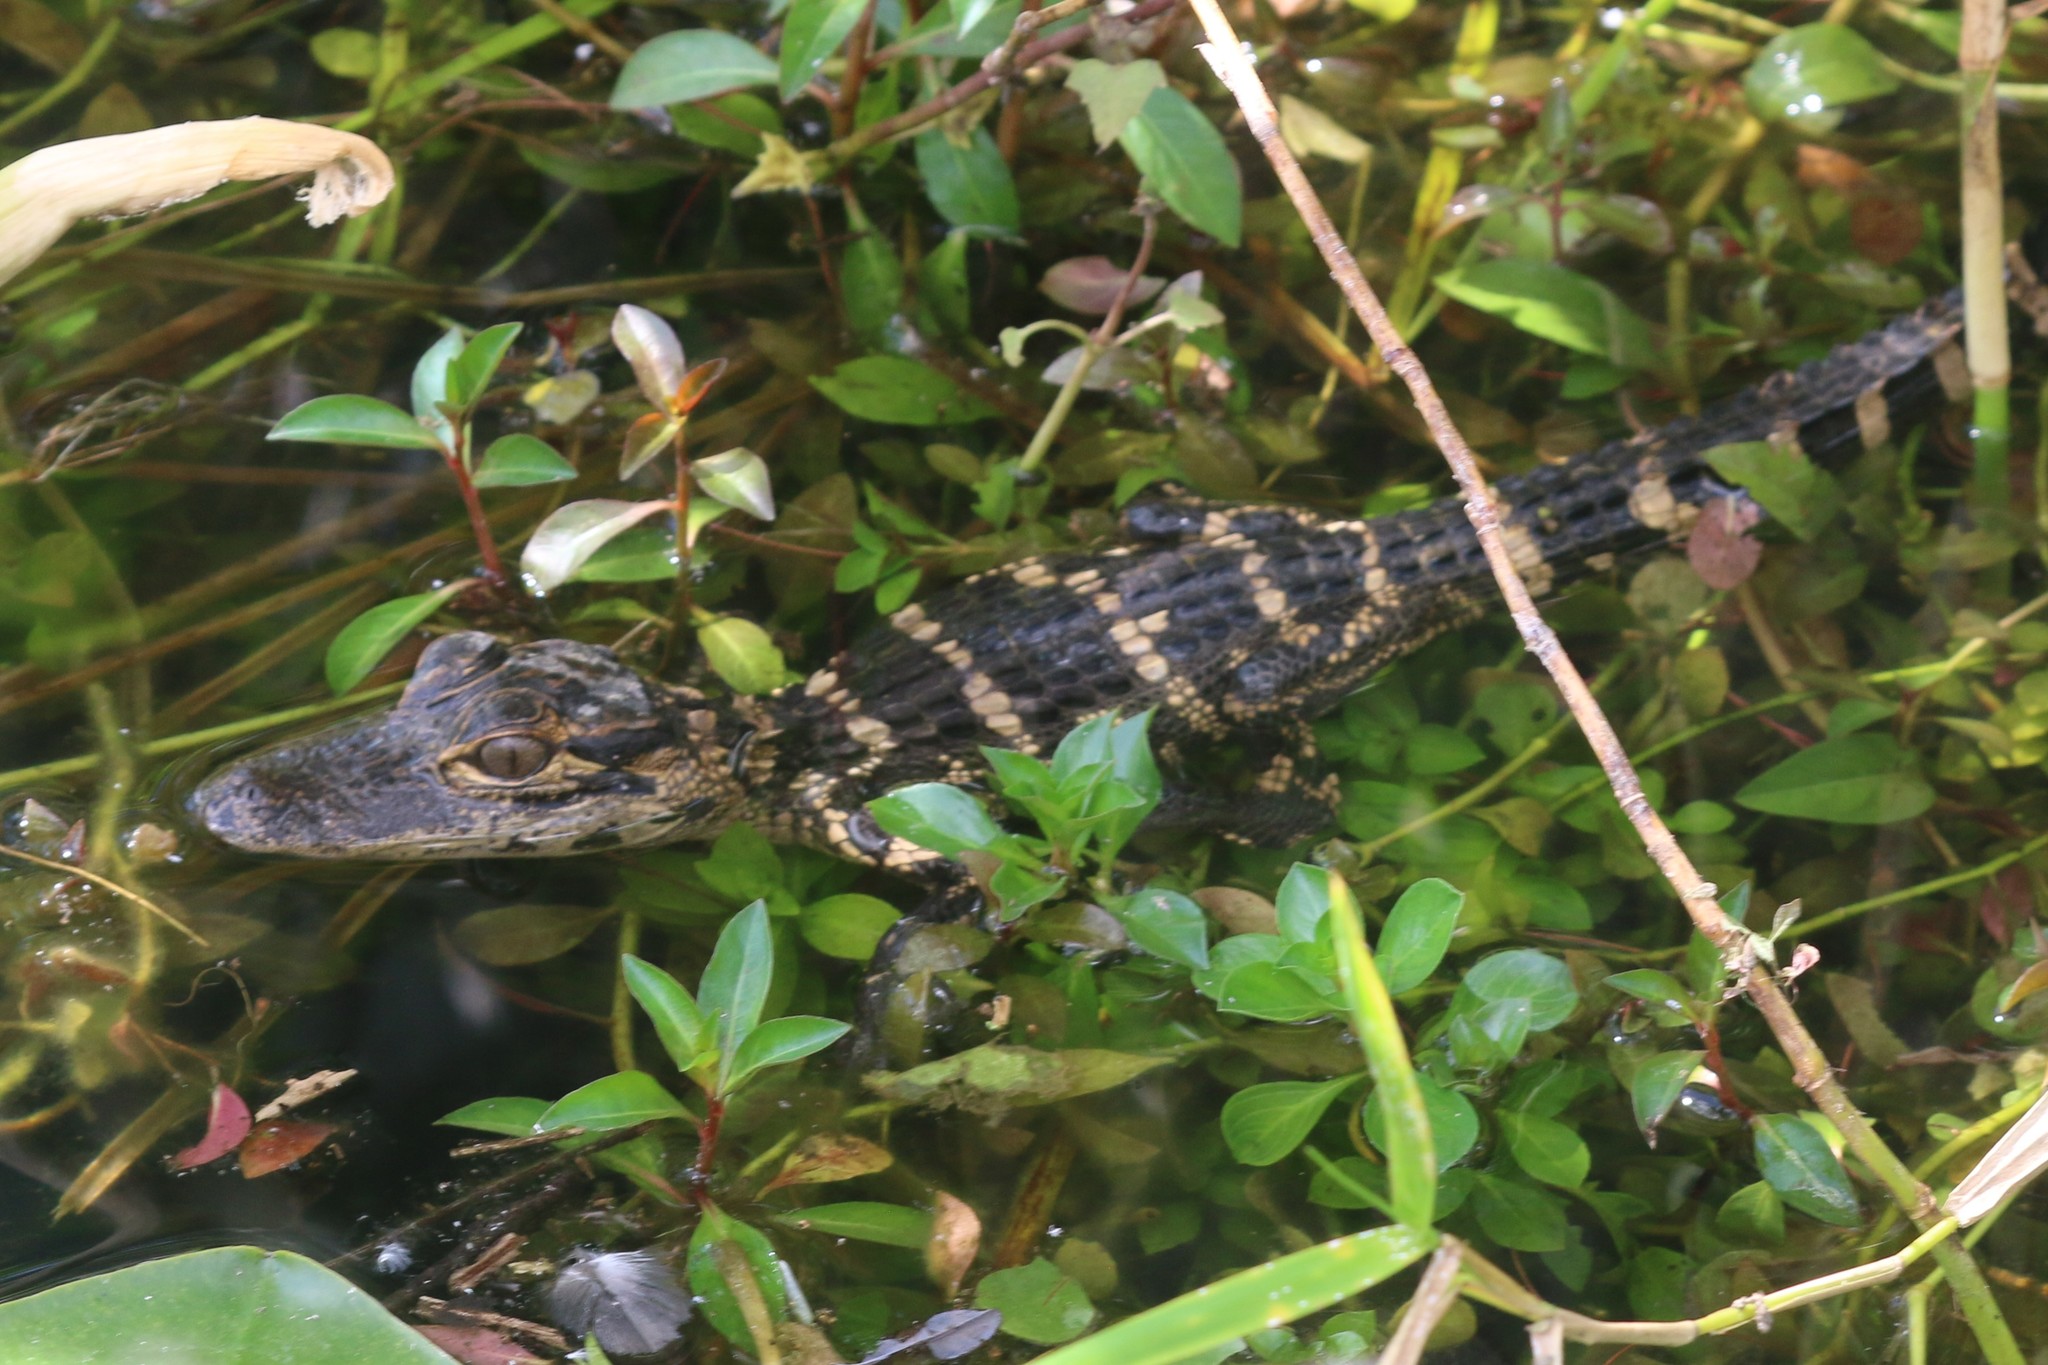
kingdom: Animalia
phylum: Chordata
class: Crocodylia
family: Alligatoridae
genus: Alligator
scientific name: Alligator mississippiensis
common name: American alligator
